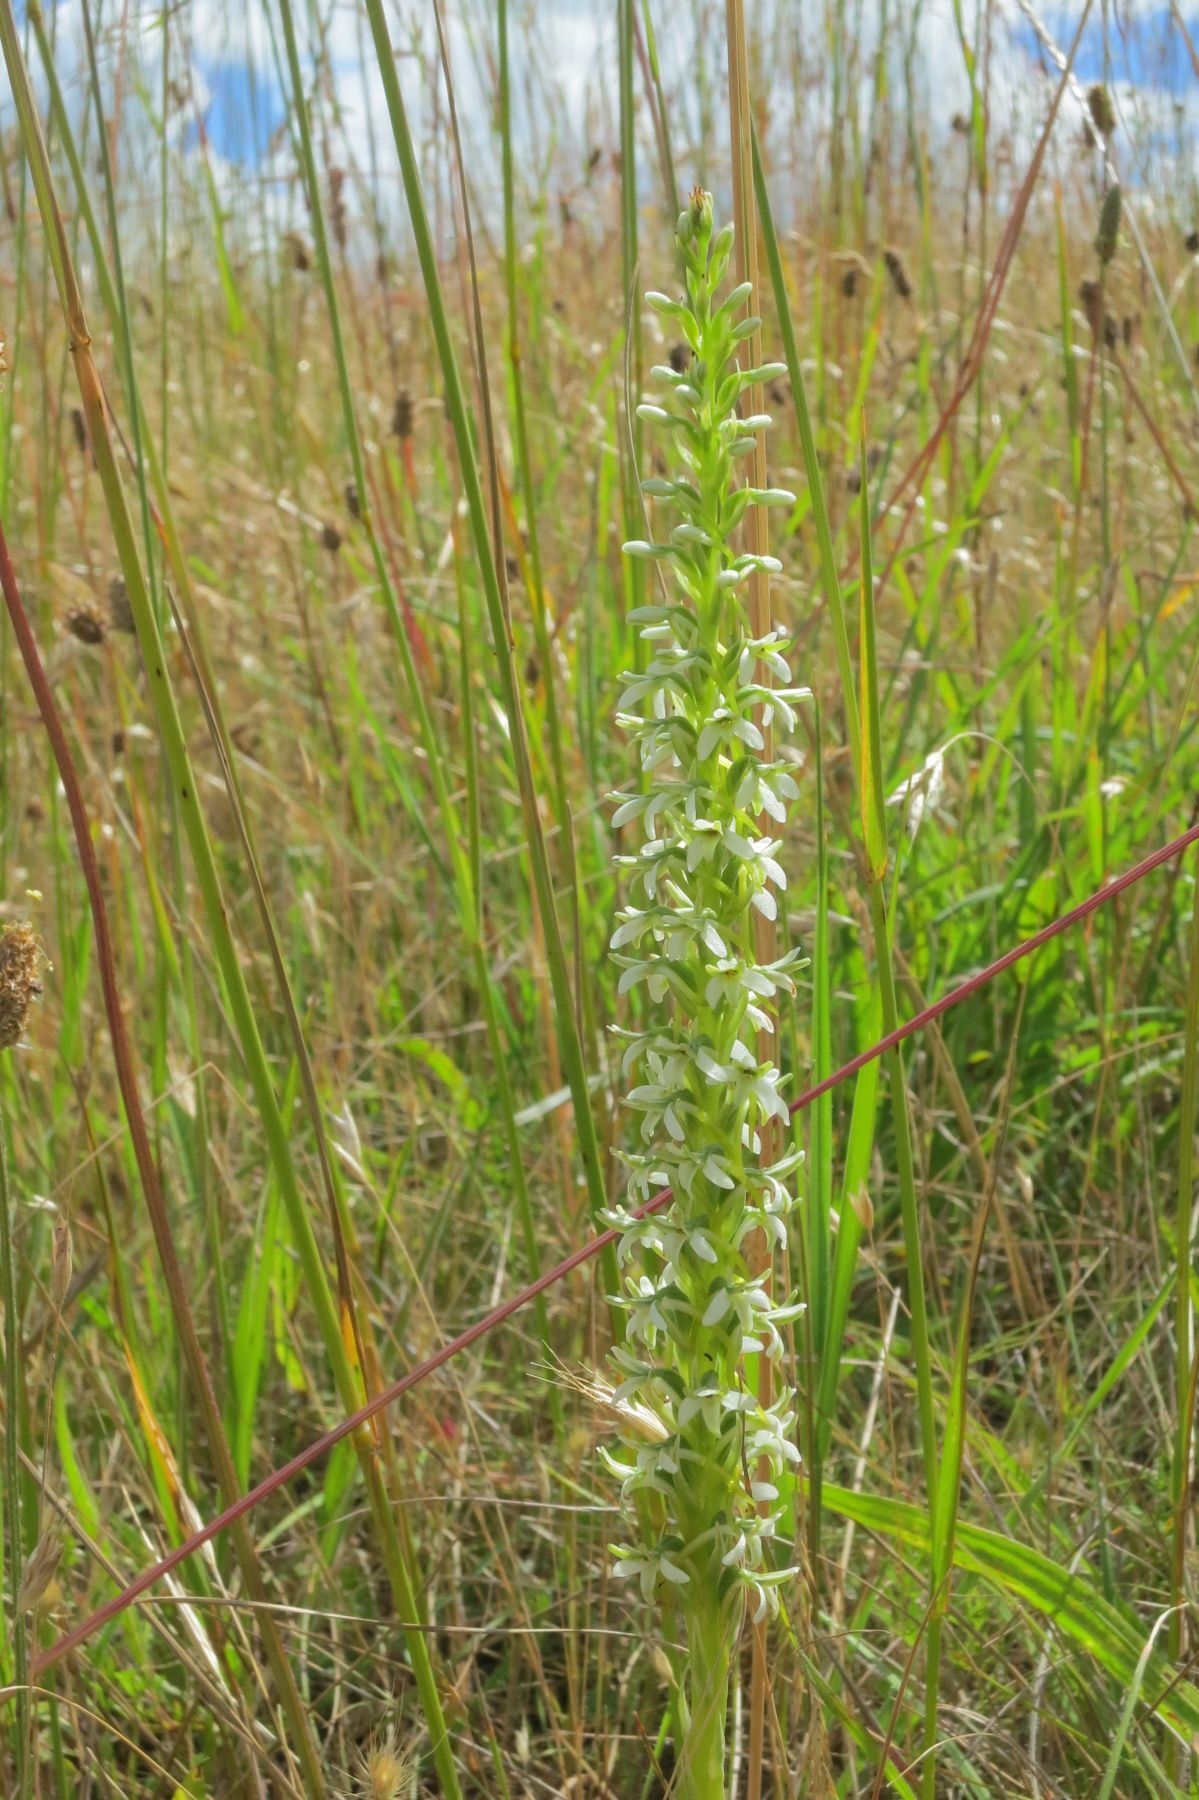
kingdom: Plantae
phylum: Tracheophyta
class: Liliopsida
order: Asparagales
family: Orchidaceae
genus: Platanthera
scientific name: Platanthera elegans
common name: Coast piperia
